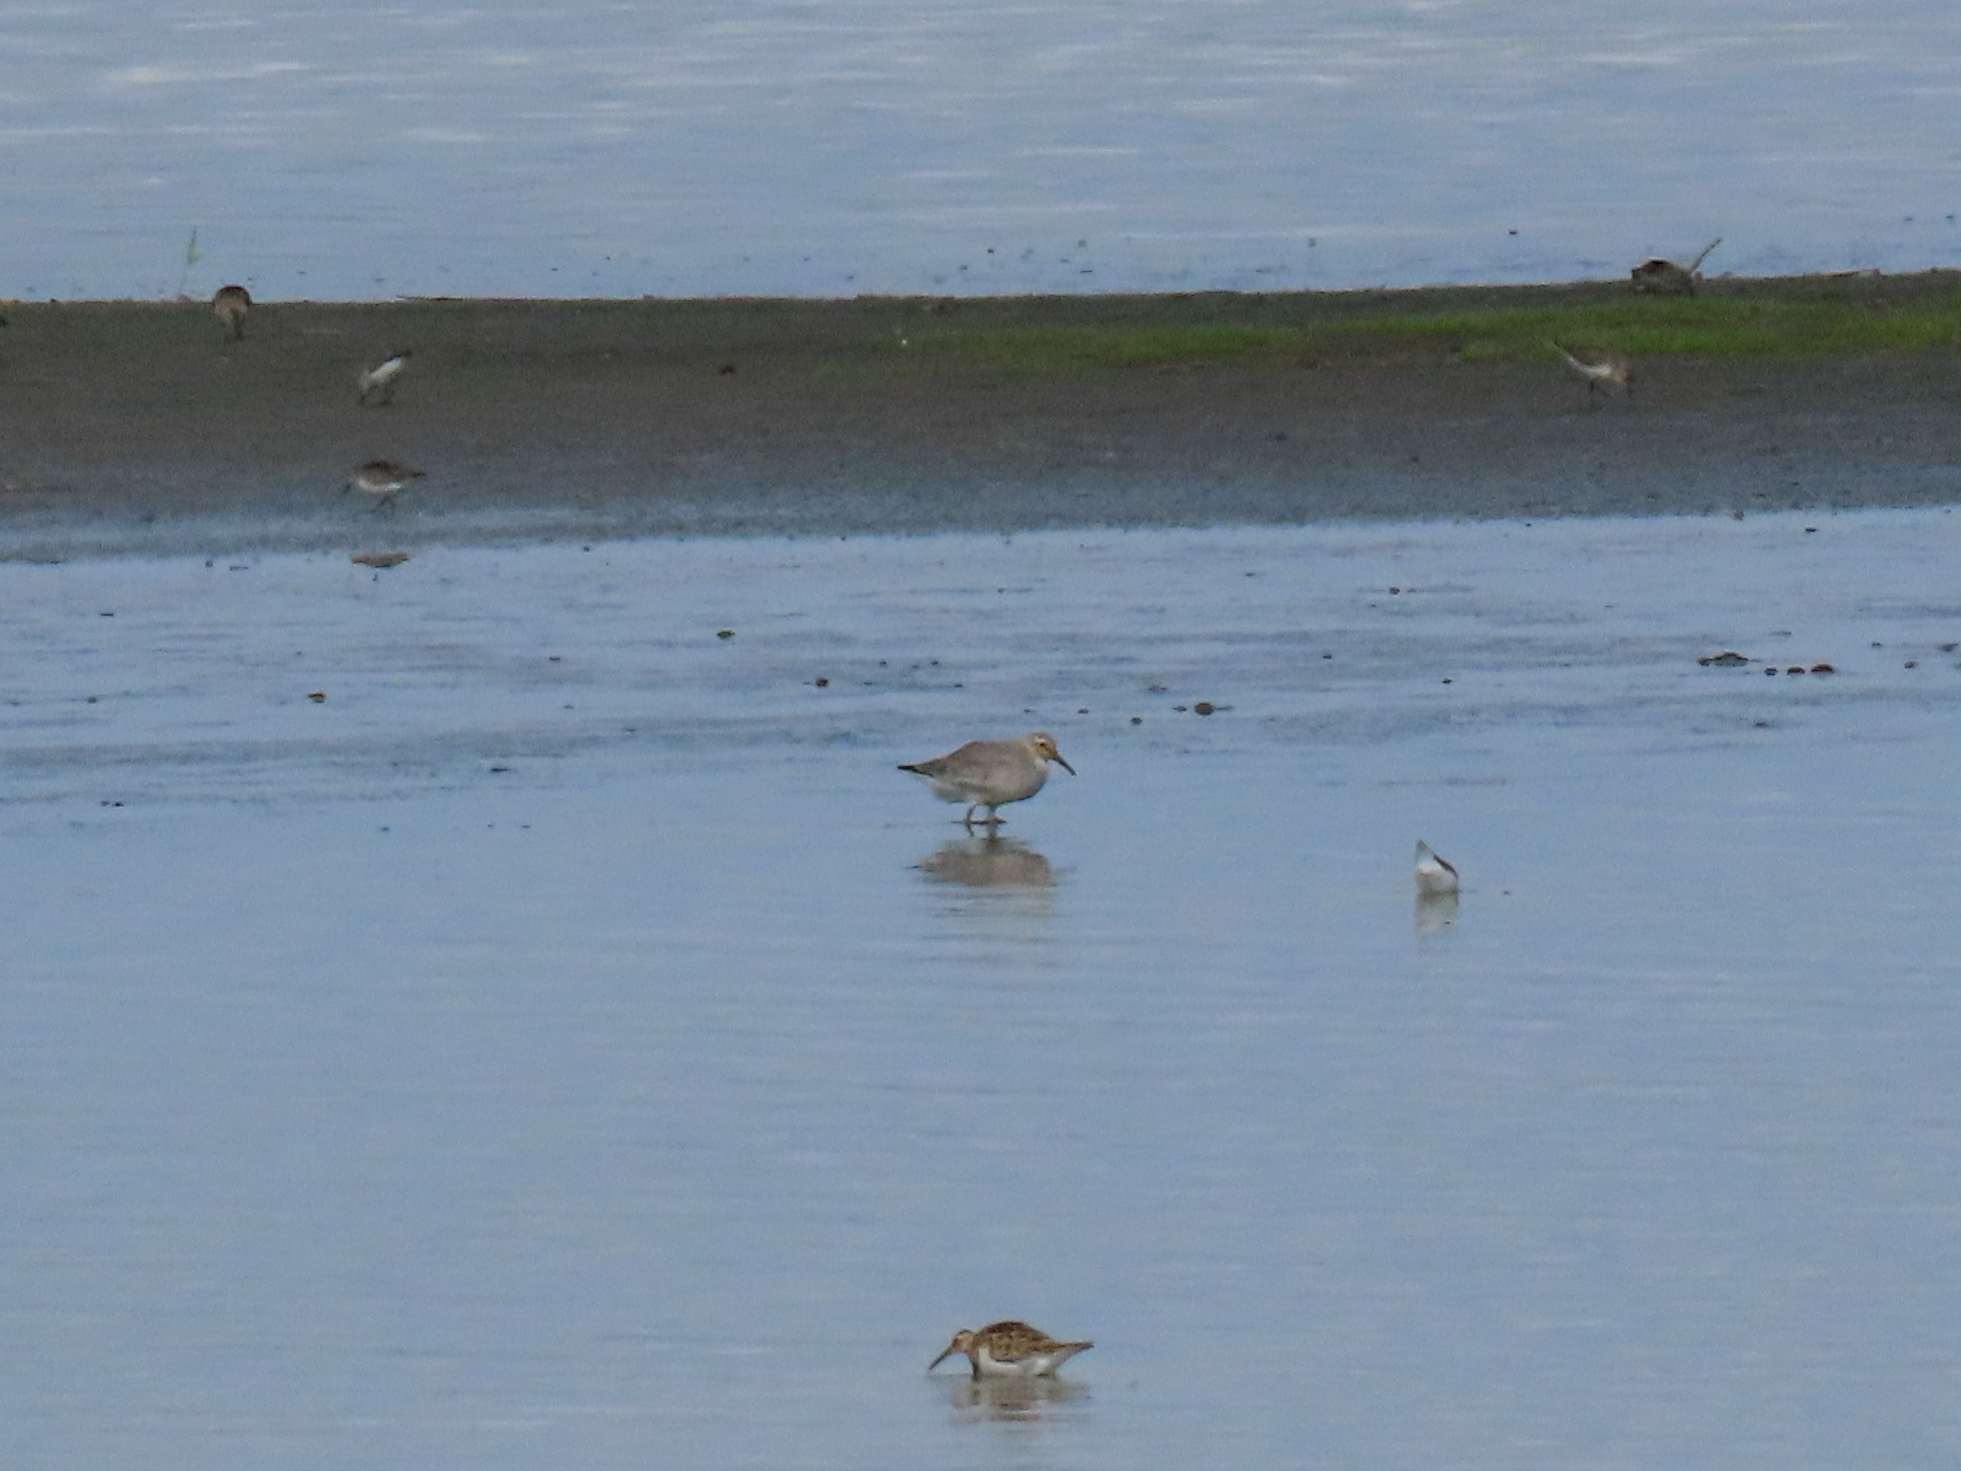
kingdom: Animalia
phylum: Chordata
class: Aves
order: Charadriiformes
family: Scolopacidae
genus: Calidris
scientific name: Calidris canutus
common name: Red knot
